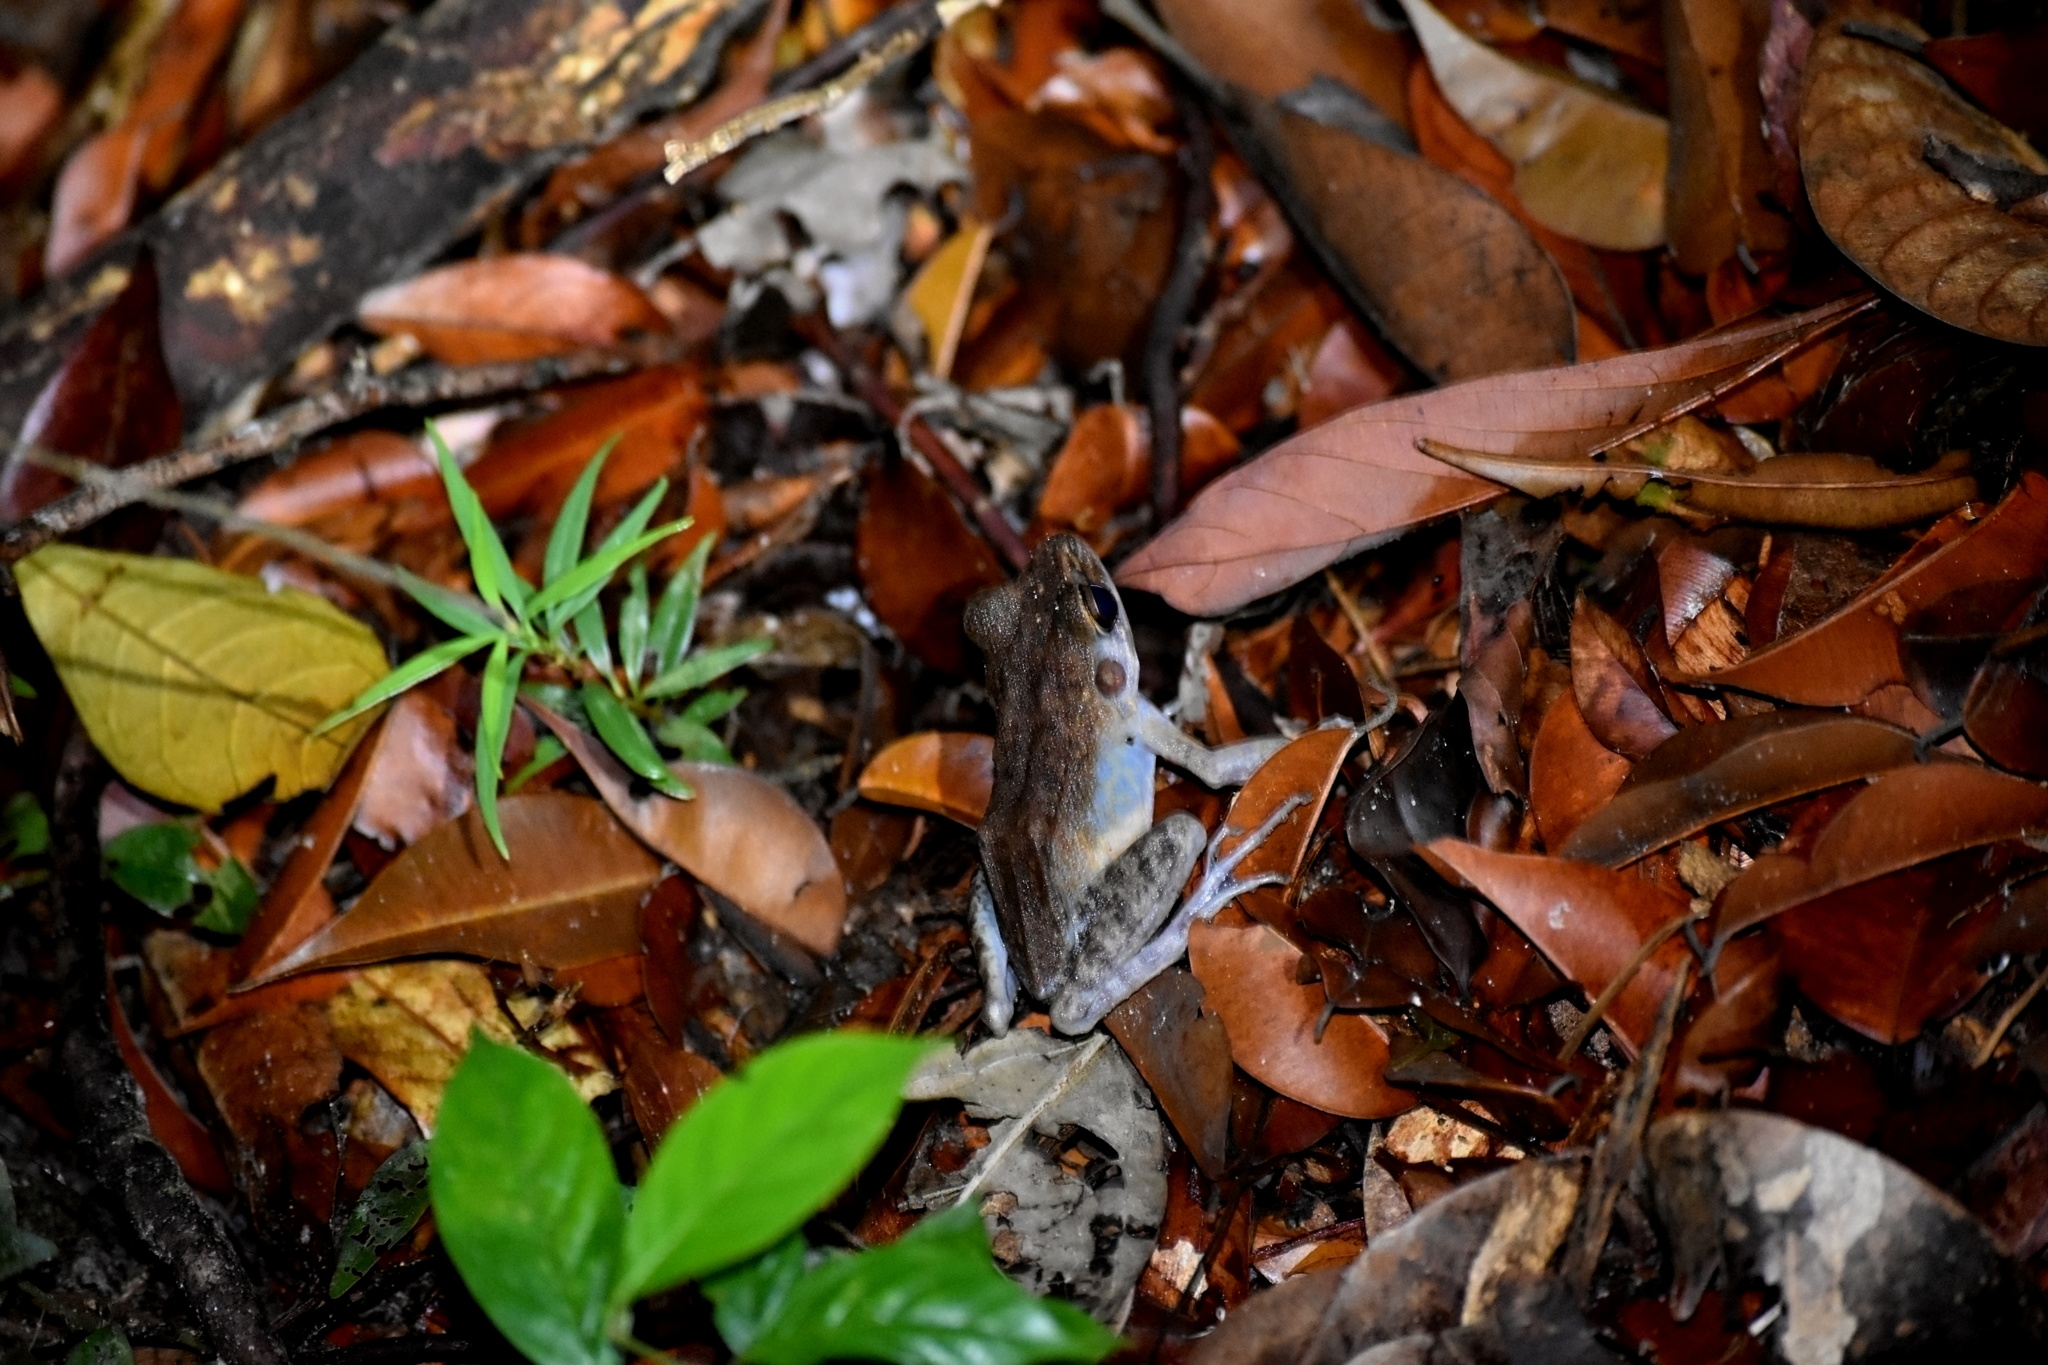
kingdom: Animalia
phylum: Chordata
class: Amphibia
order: Anura
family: Ranidae
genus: Pulchrana
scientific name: Pulchrana baramica
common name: Baram river frog
